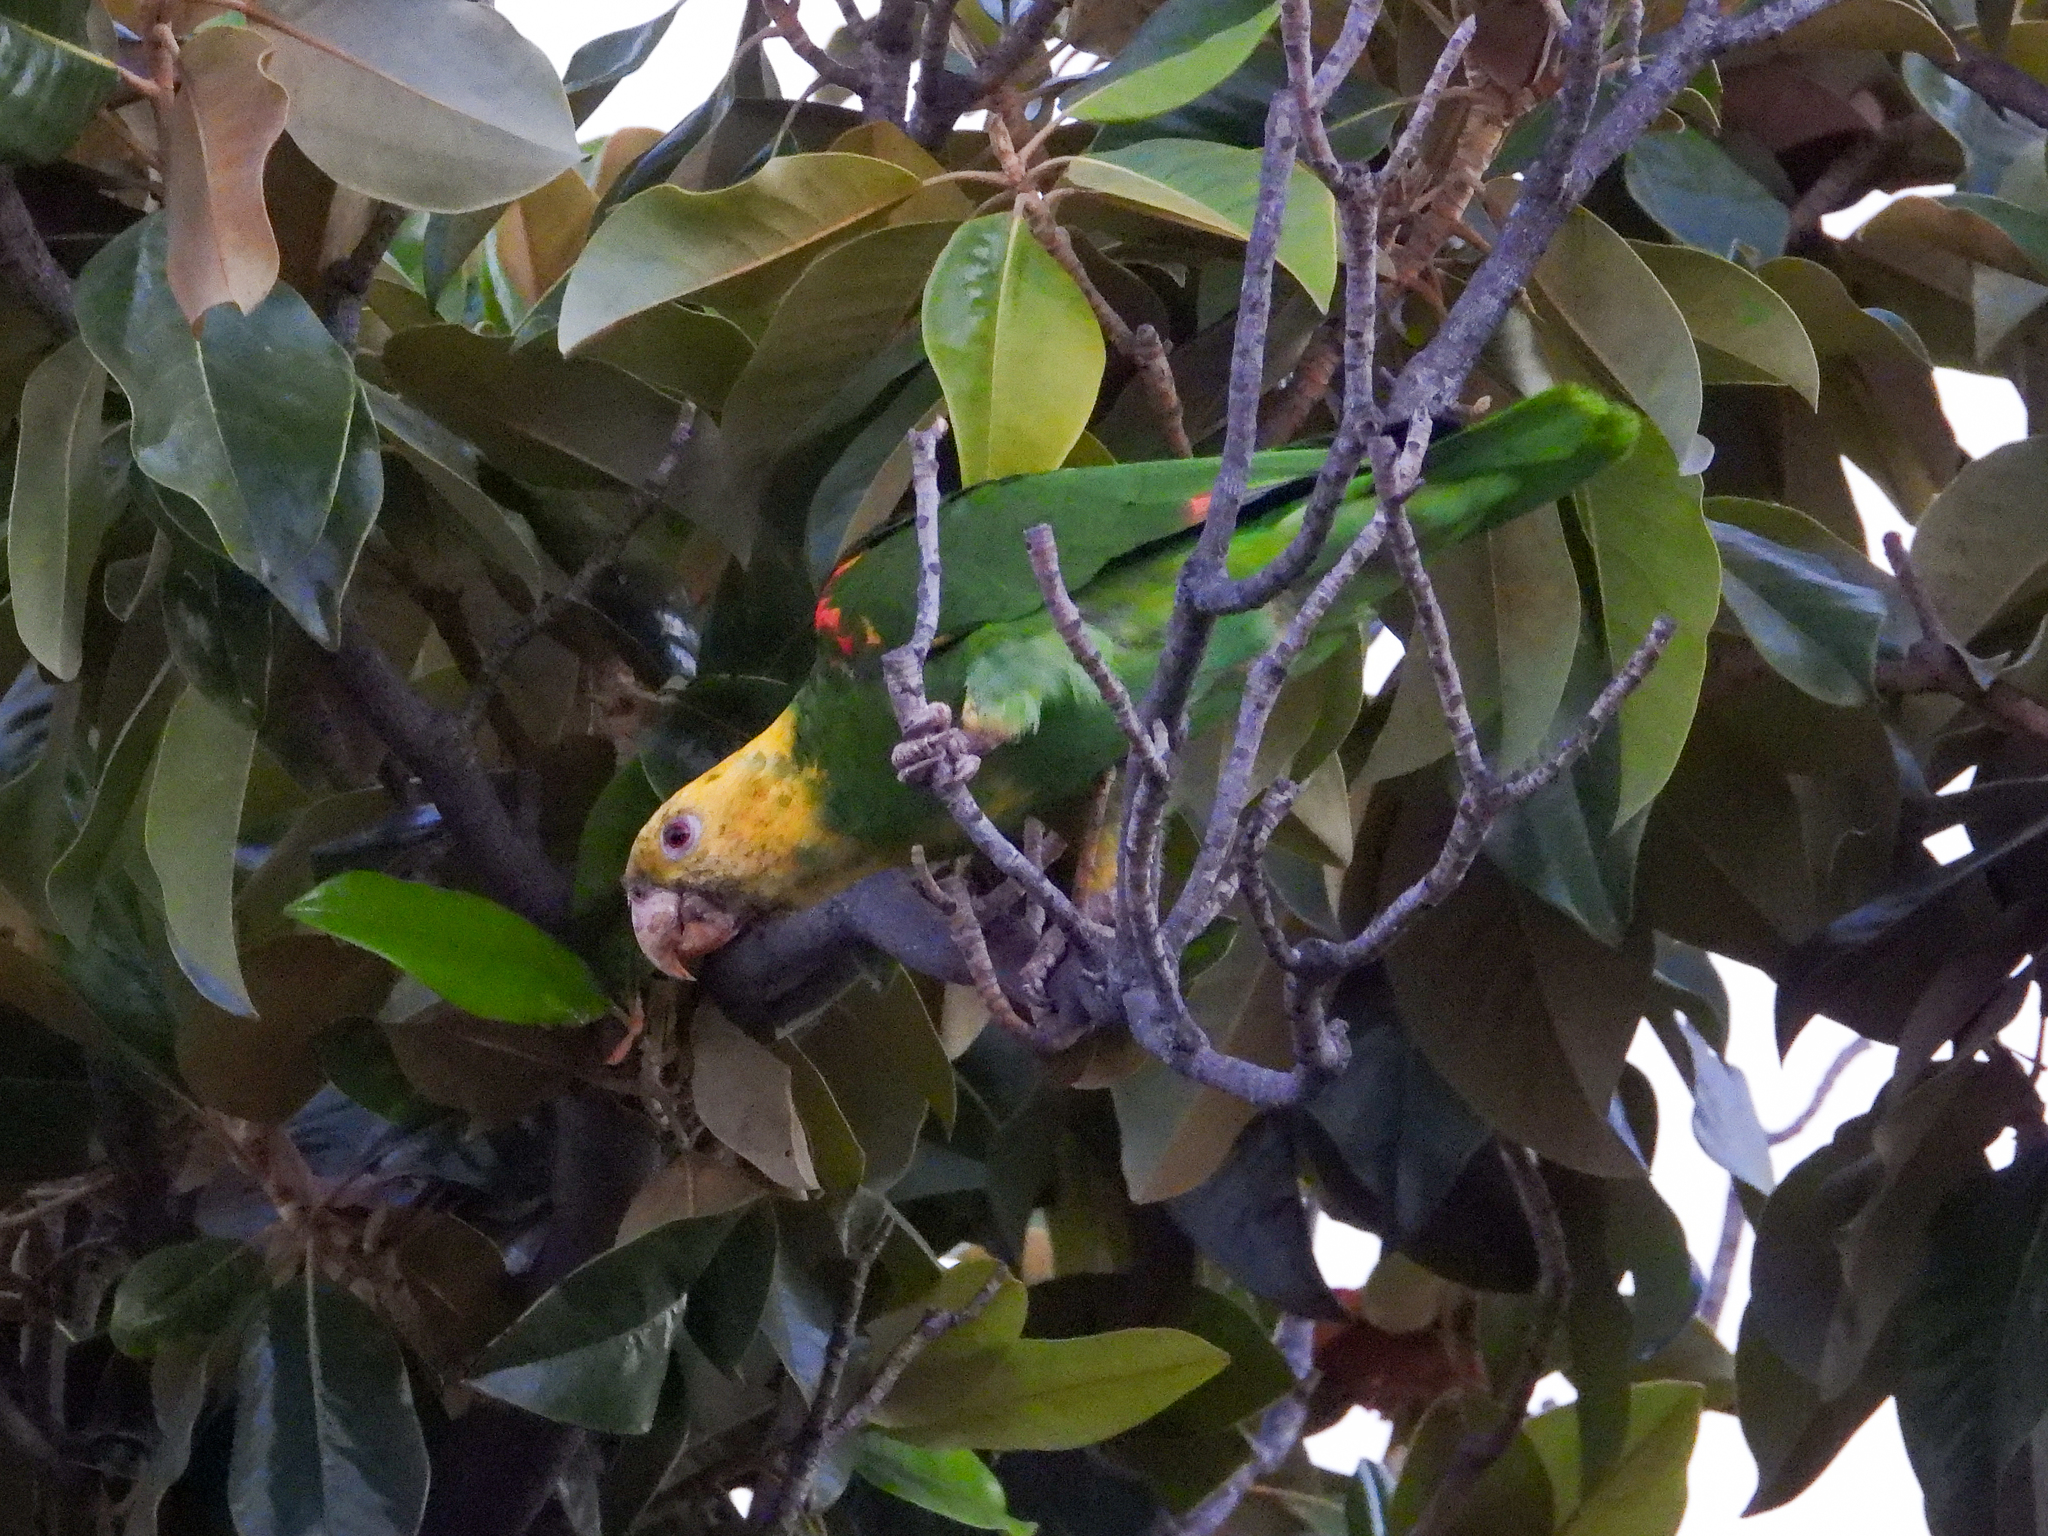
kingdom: Animalia
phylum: Chordata
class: Aves
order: Psittaciformes
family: Psittacidae
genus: Amazona
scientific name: Amazona oratrix
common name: Yellow-headed amazon
